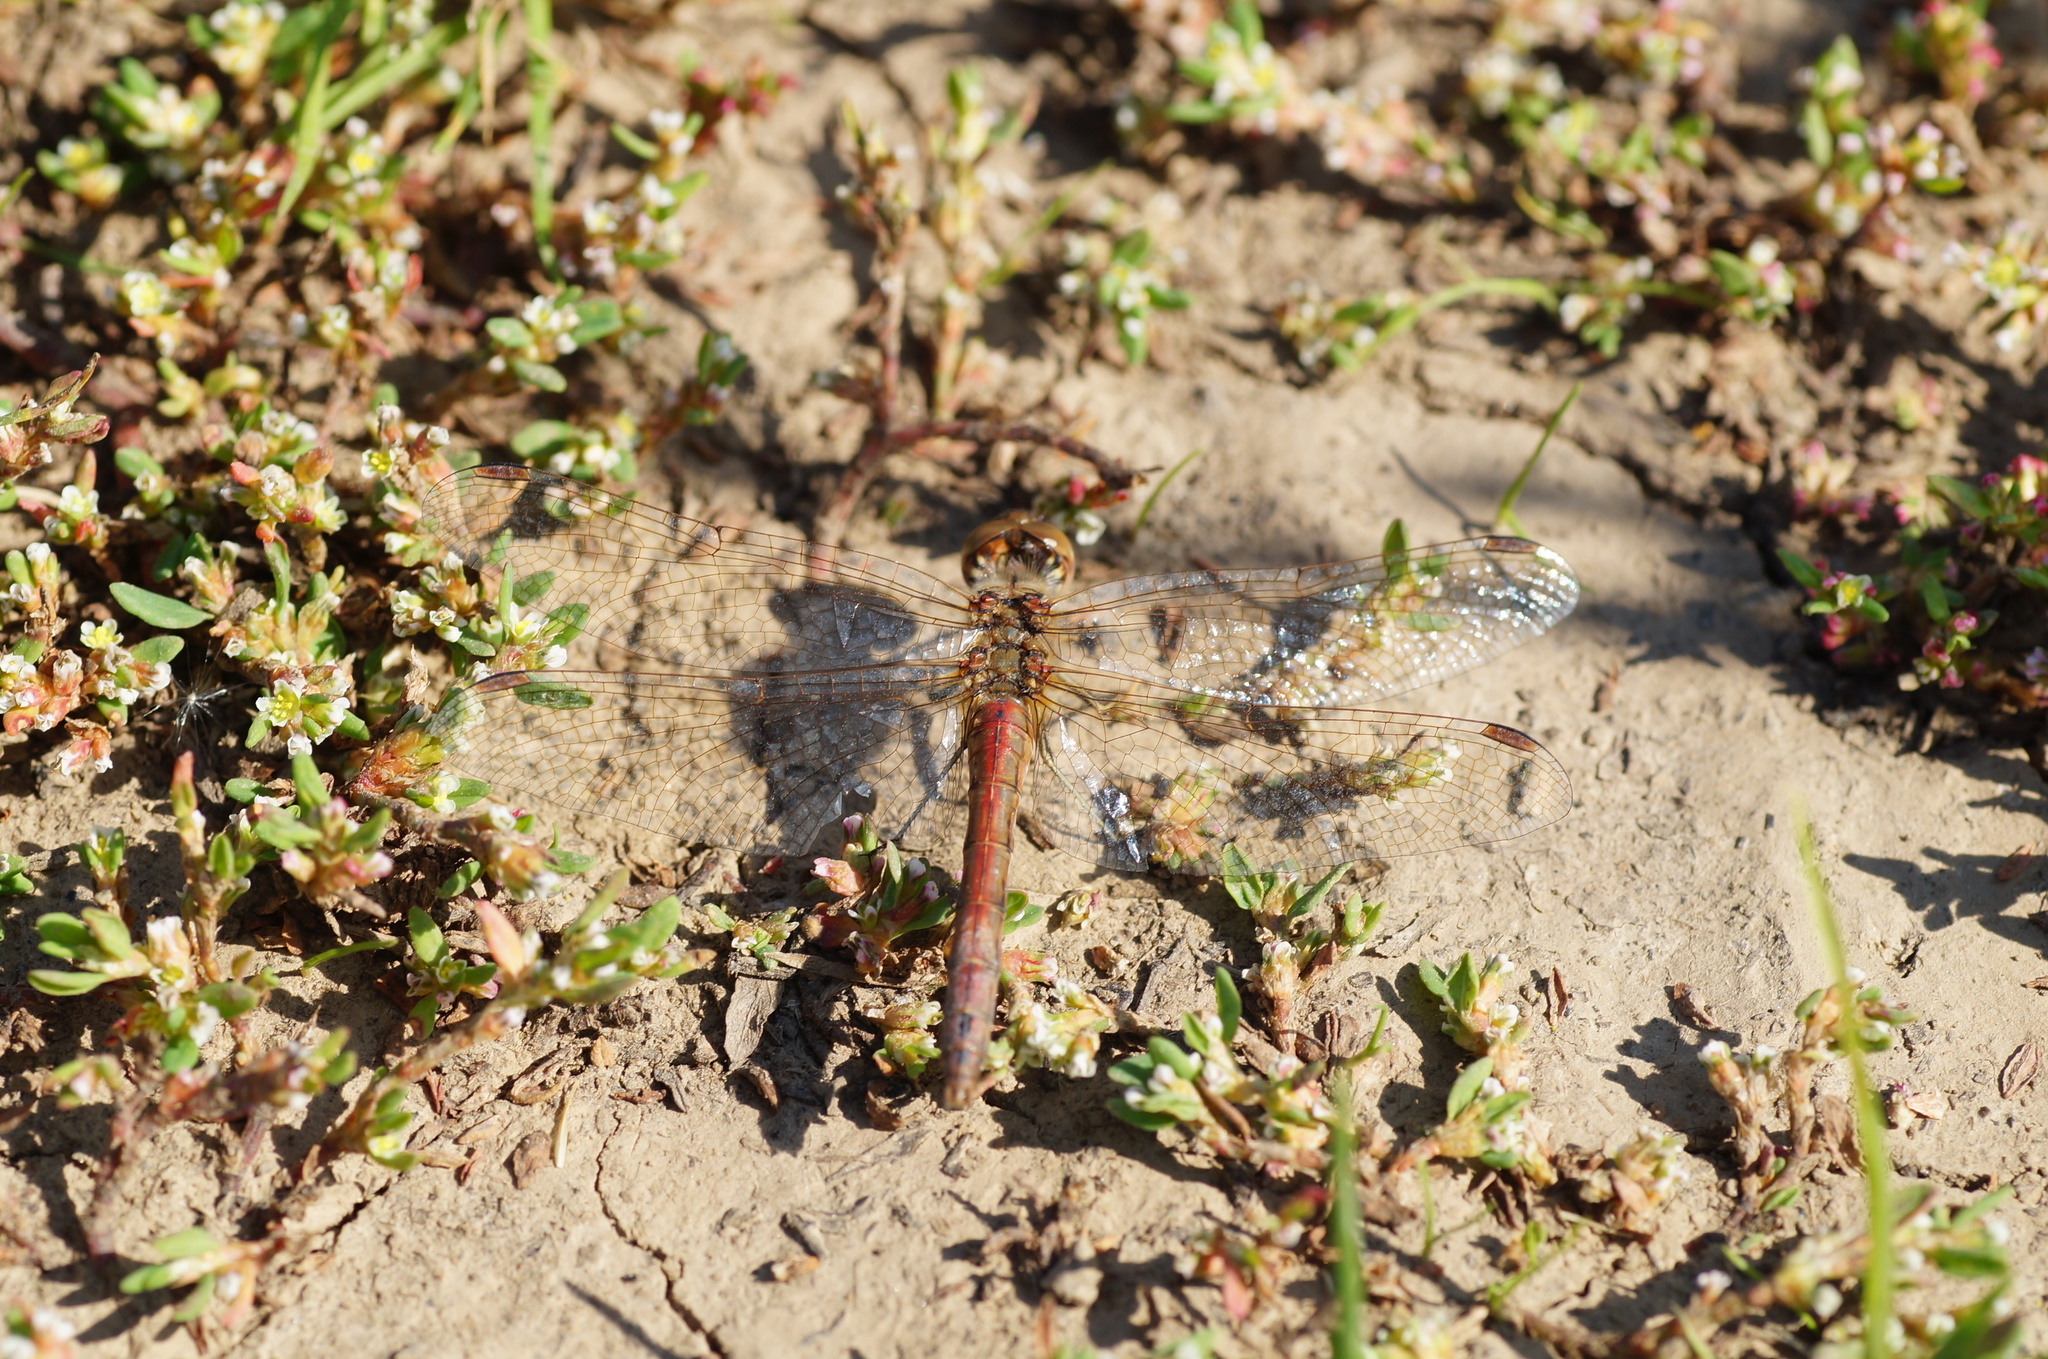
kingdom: Animalia
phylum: Arthropoda
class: Insecta
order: Odonata
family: Libellulidae
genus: Sympetrum
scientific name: Sympetrum vulgatum
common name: Vagrant darter
